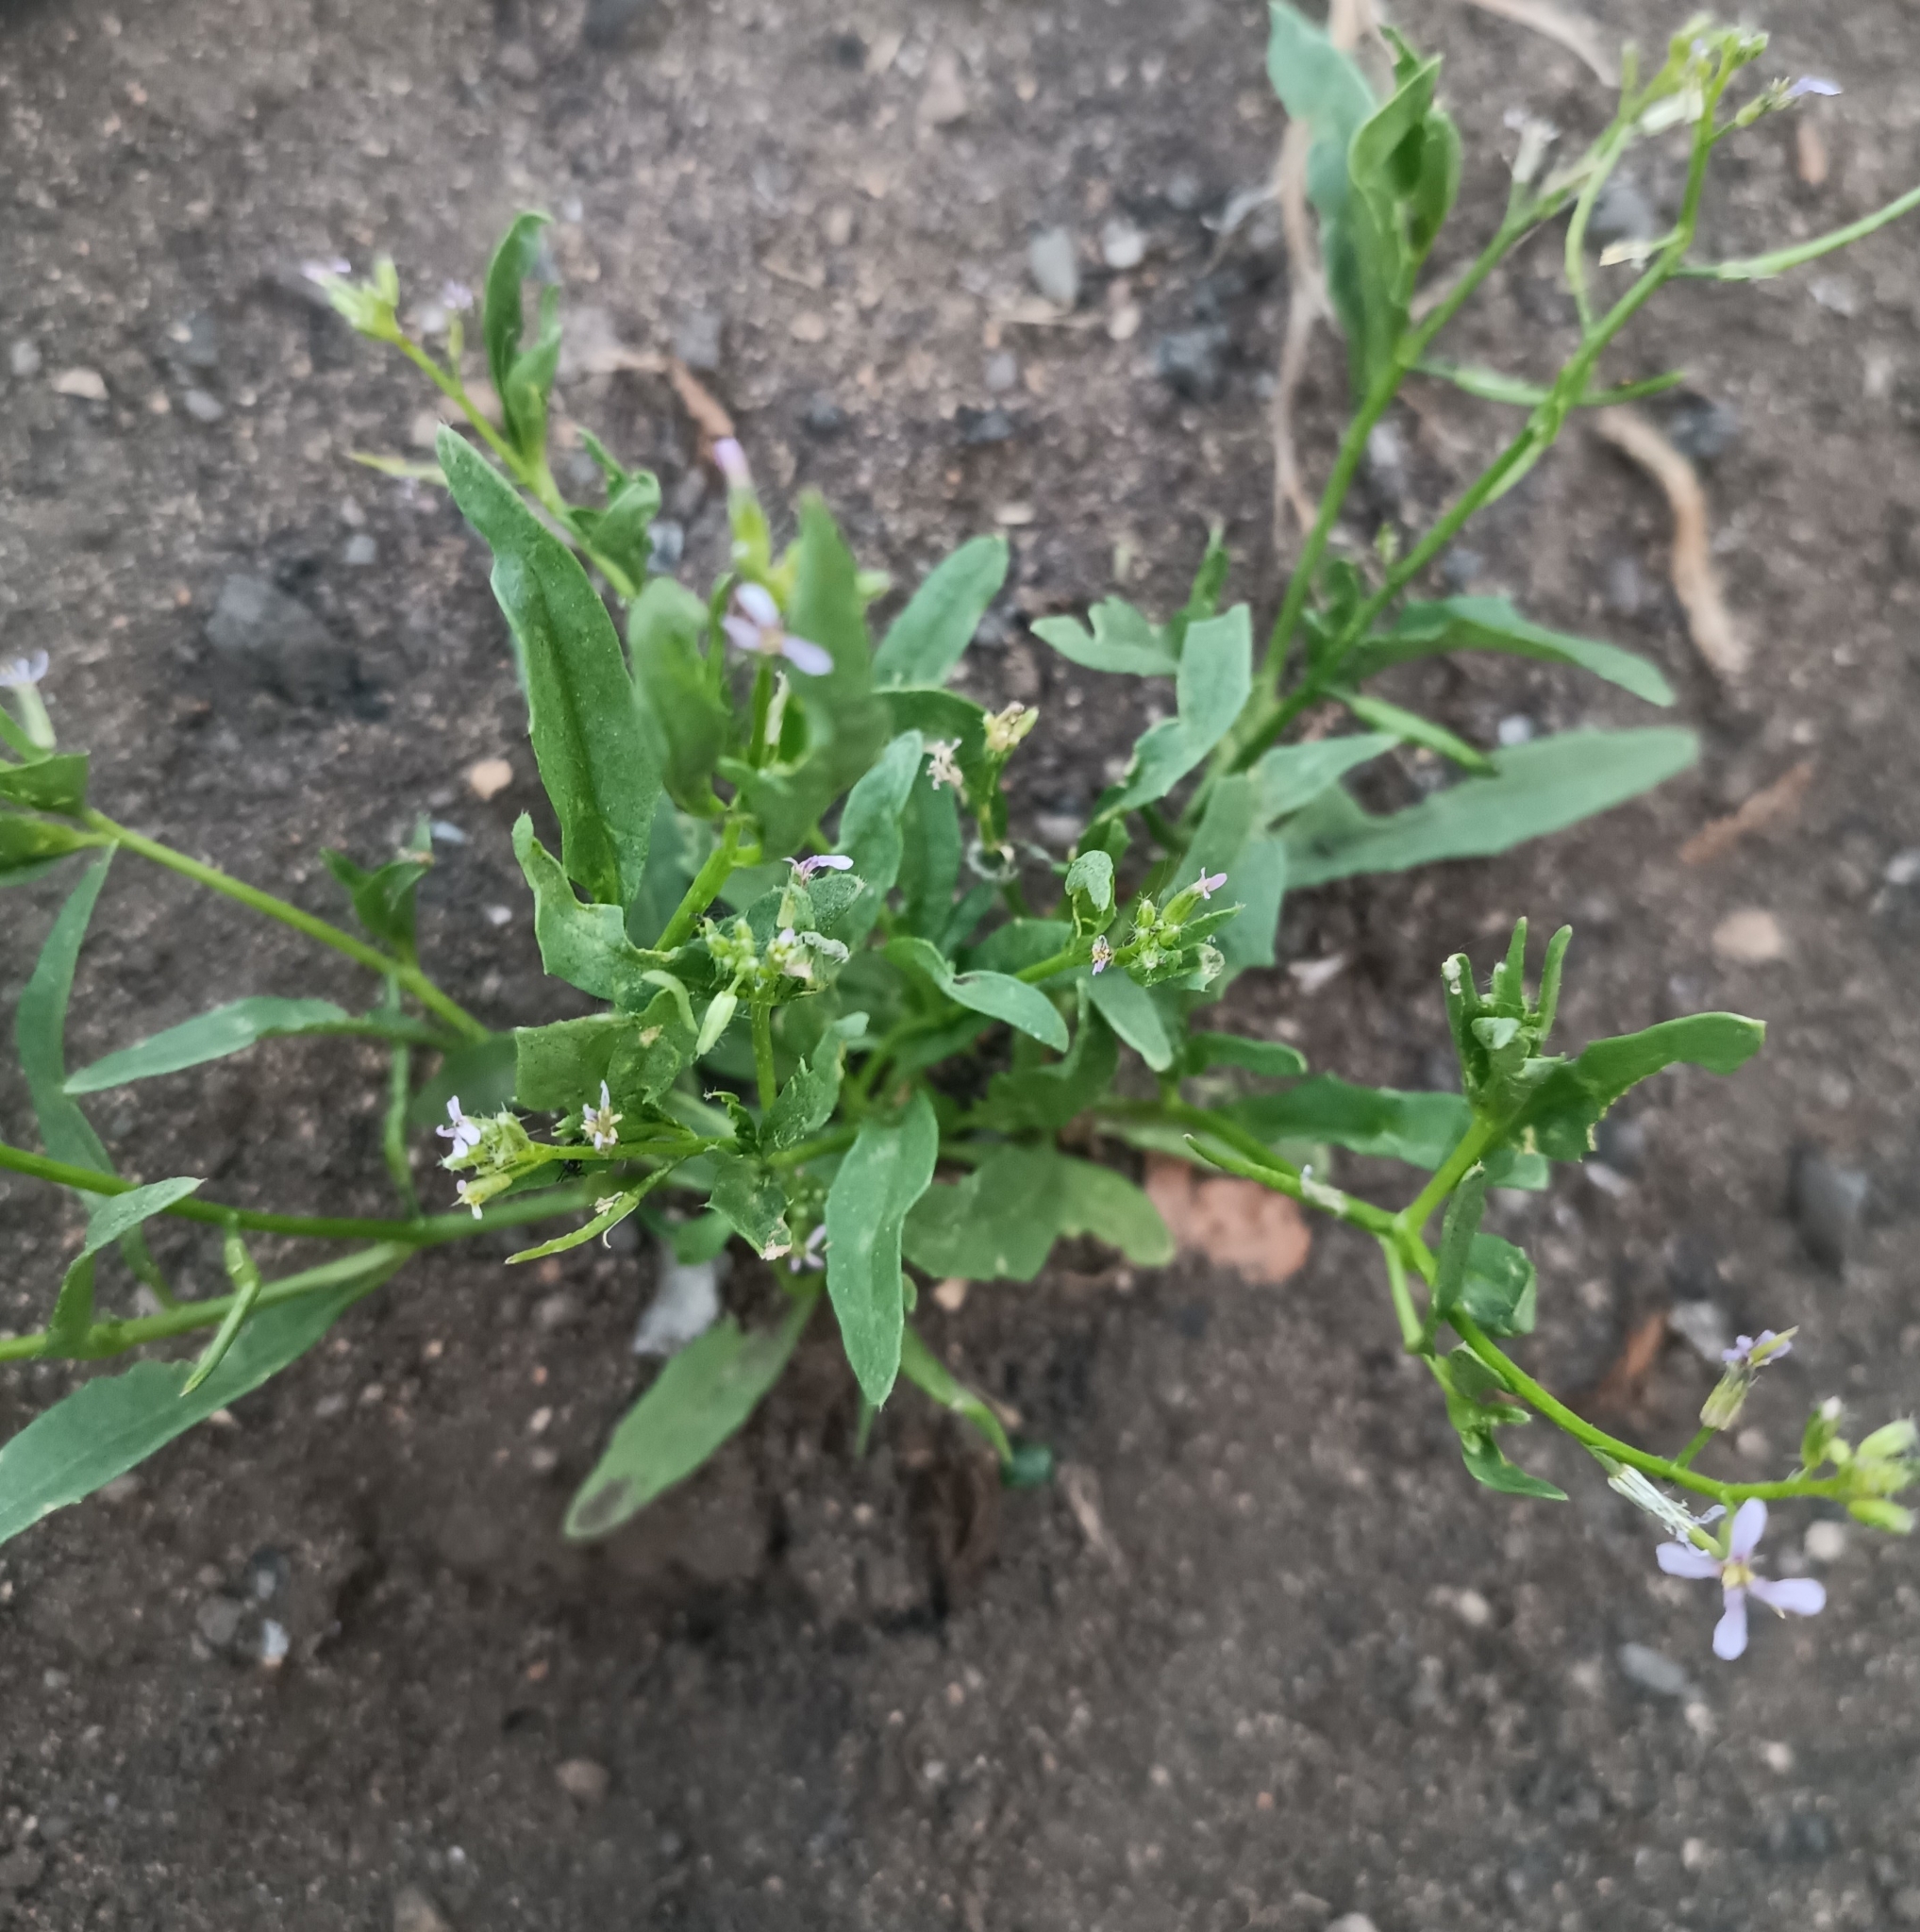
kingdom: Plantae
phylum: Tracheophyta
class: Magnoliopsida
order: Brassicales
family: Brassicaceae
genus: Chorispora
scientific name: Chorispora tenella
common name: Crossflower
